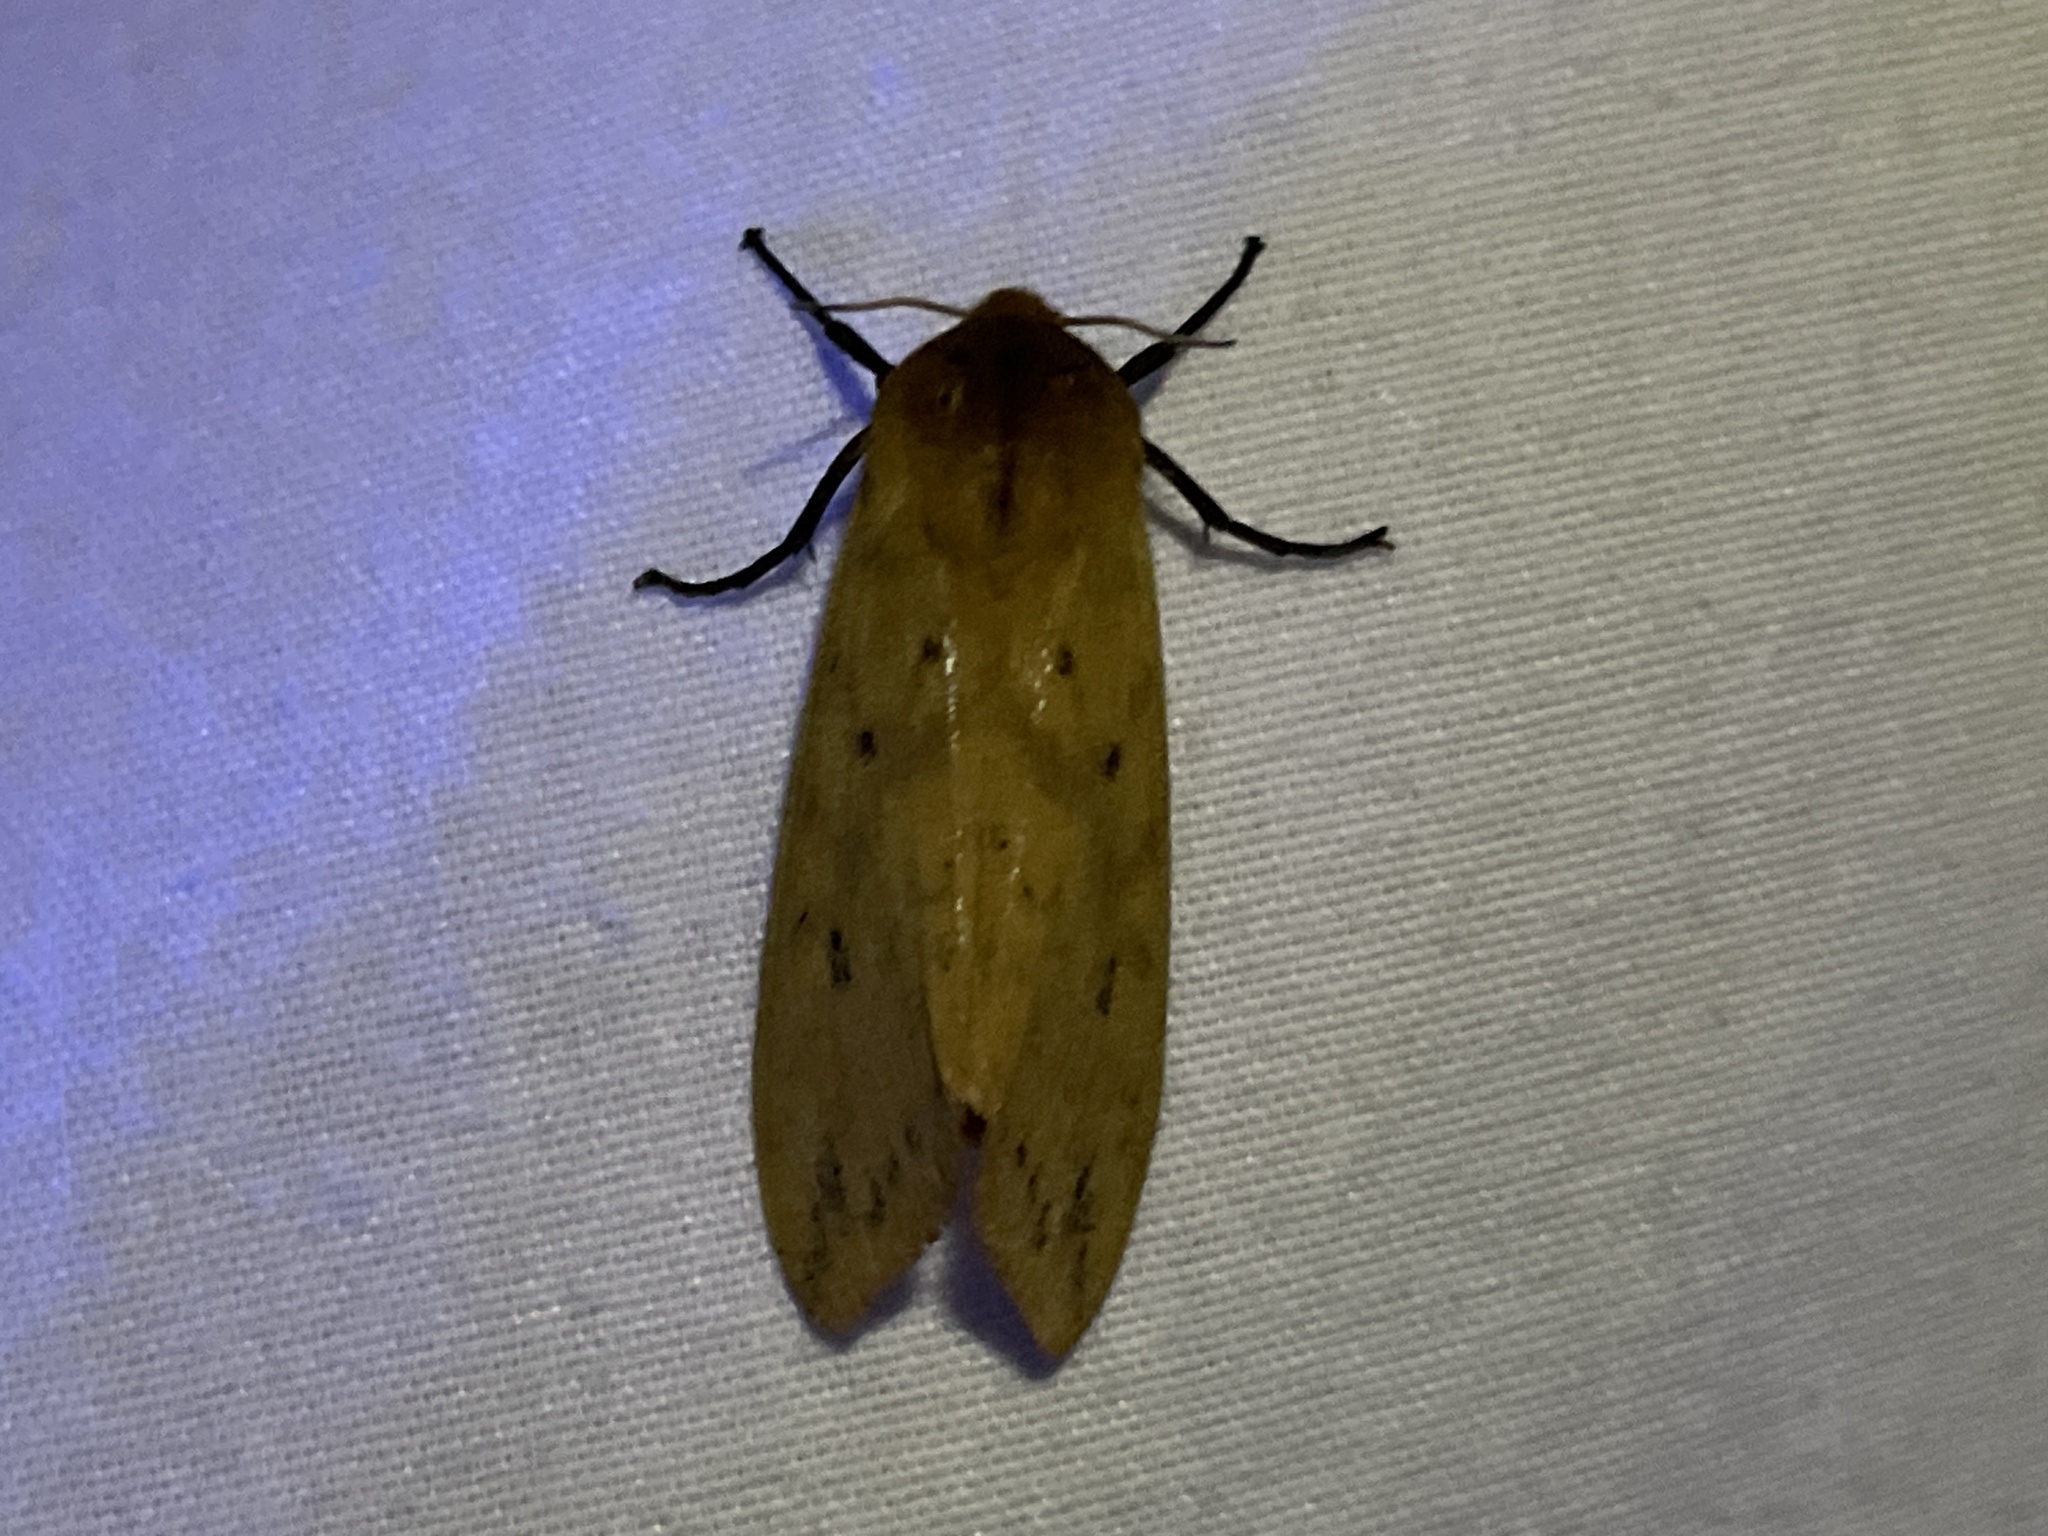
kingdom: Animalia
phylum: Arthropoda
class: Insecta
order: Lepidoptera
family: Erebidae
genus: Pyrrharctia
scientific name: Pyrrharctia isabella
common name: Isabella tiger moth
